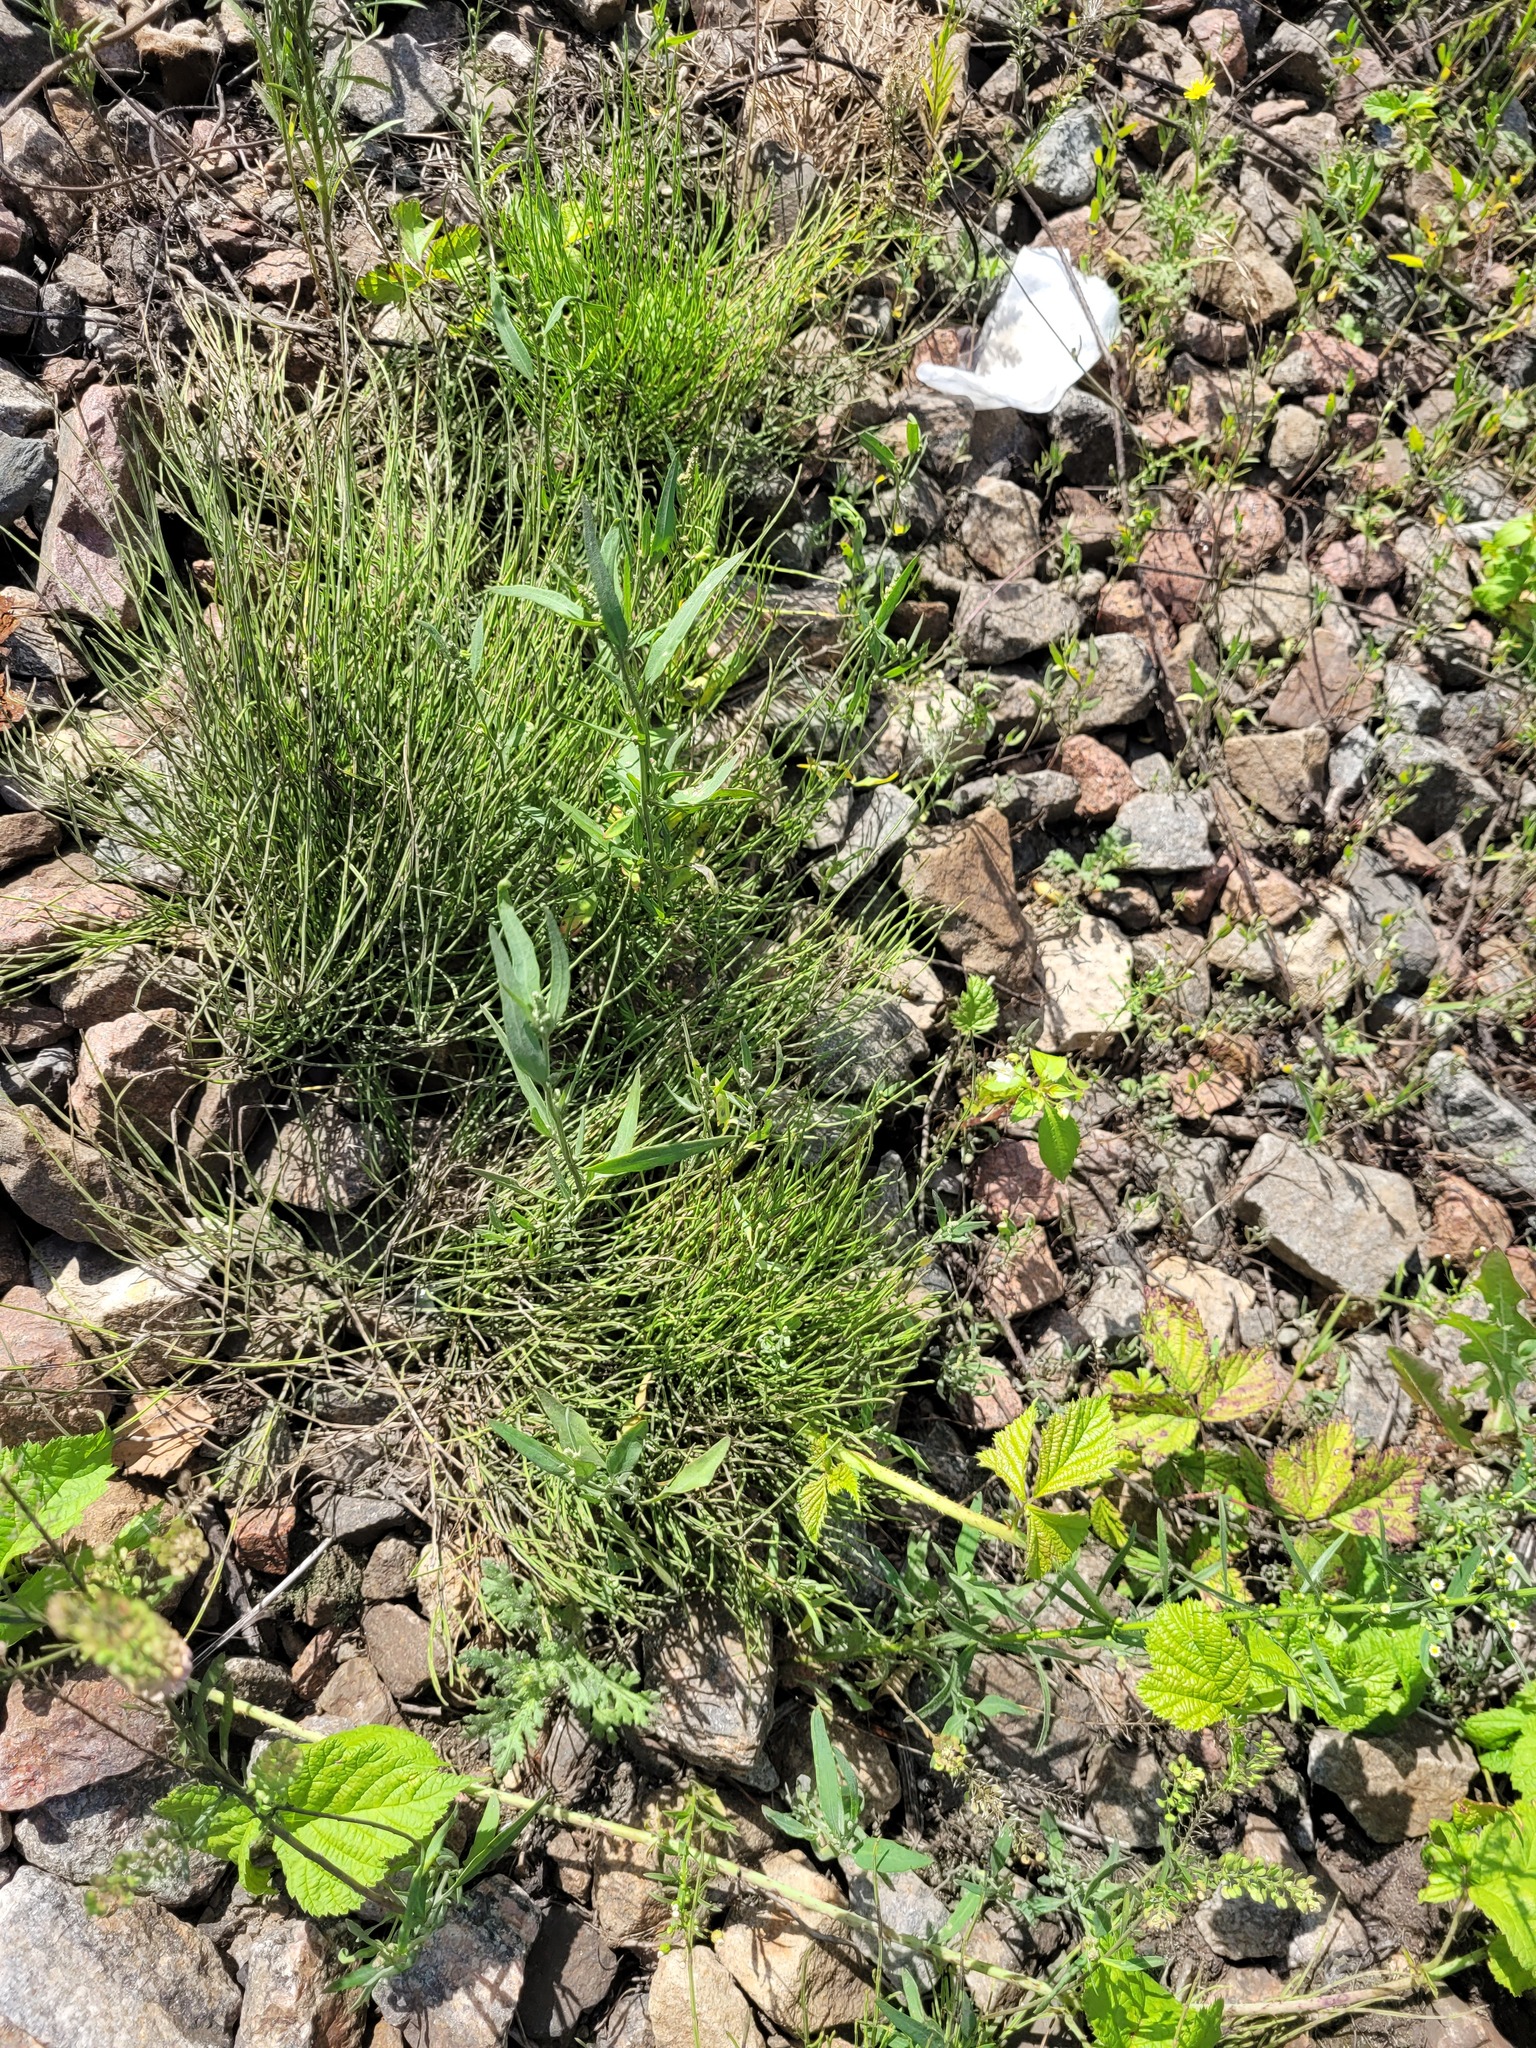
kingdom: Plantae
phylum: Tracheophyta
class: Polypodiopsida
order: Equisetales
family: Equisetaceae
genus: Equisetum
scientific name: Equisetum arvense
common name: Field horsetail
